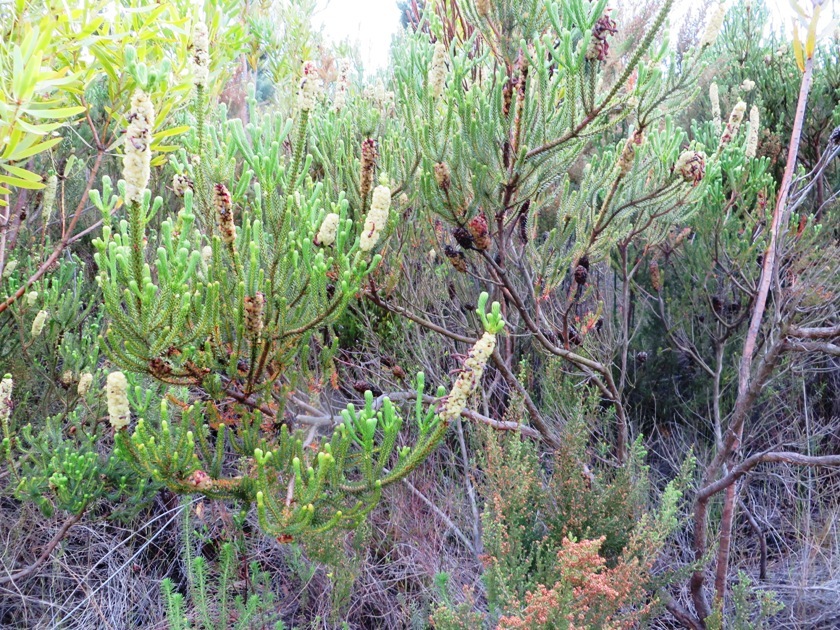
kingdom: Plantae
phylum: Tracheophyta
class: Magnoliopsida
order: Ericales
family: Ericaceae
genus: Erica
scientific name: Erica sessiliflora
